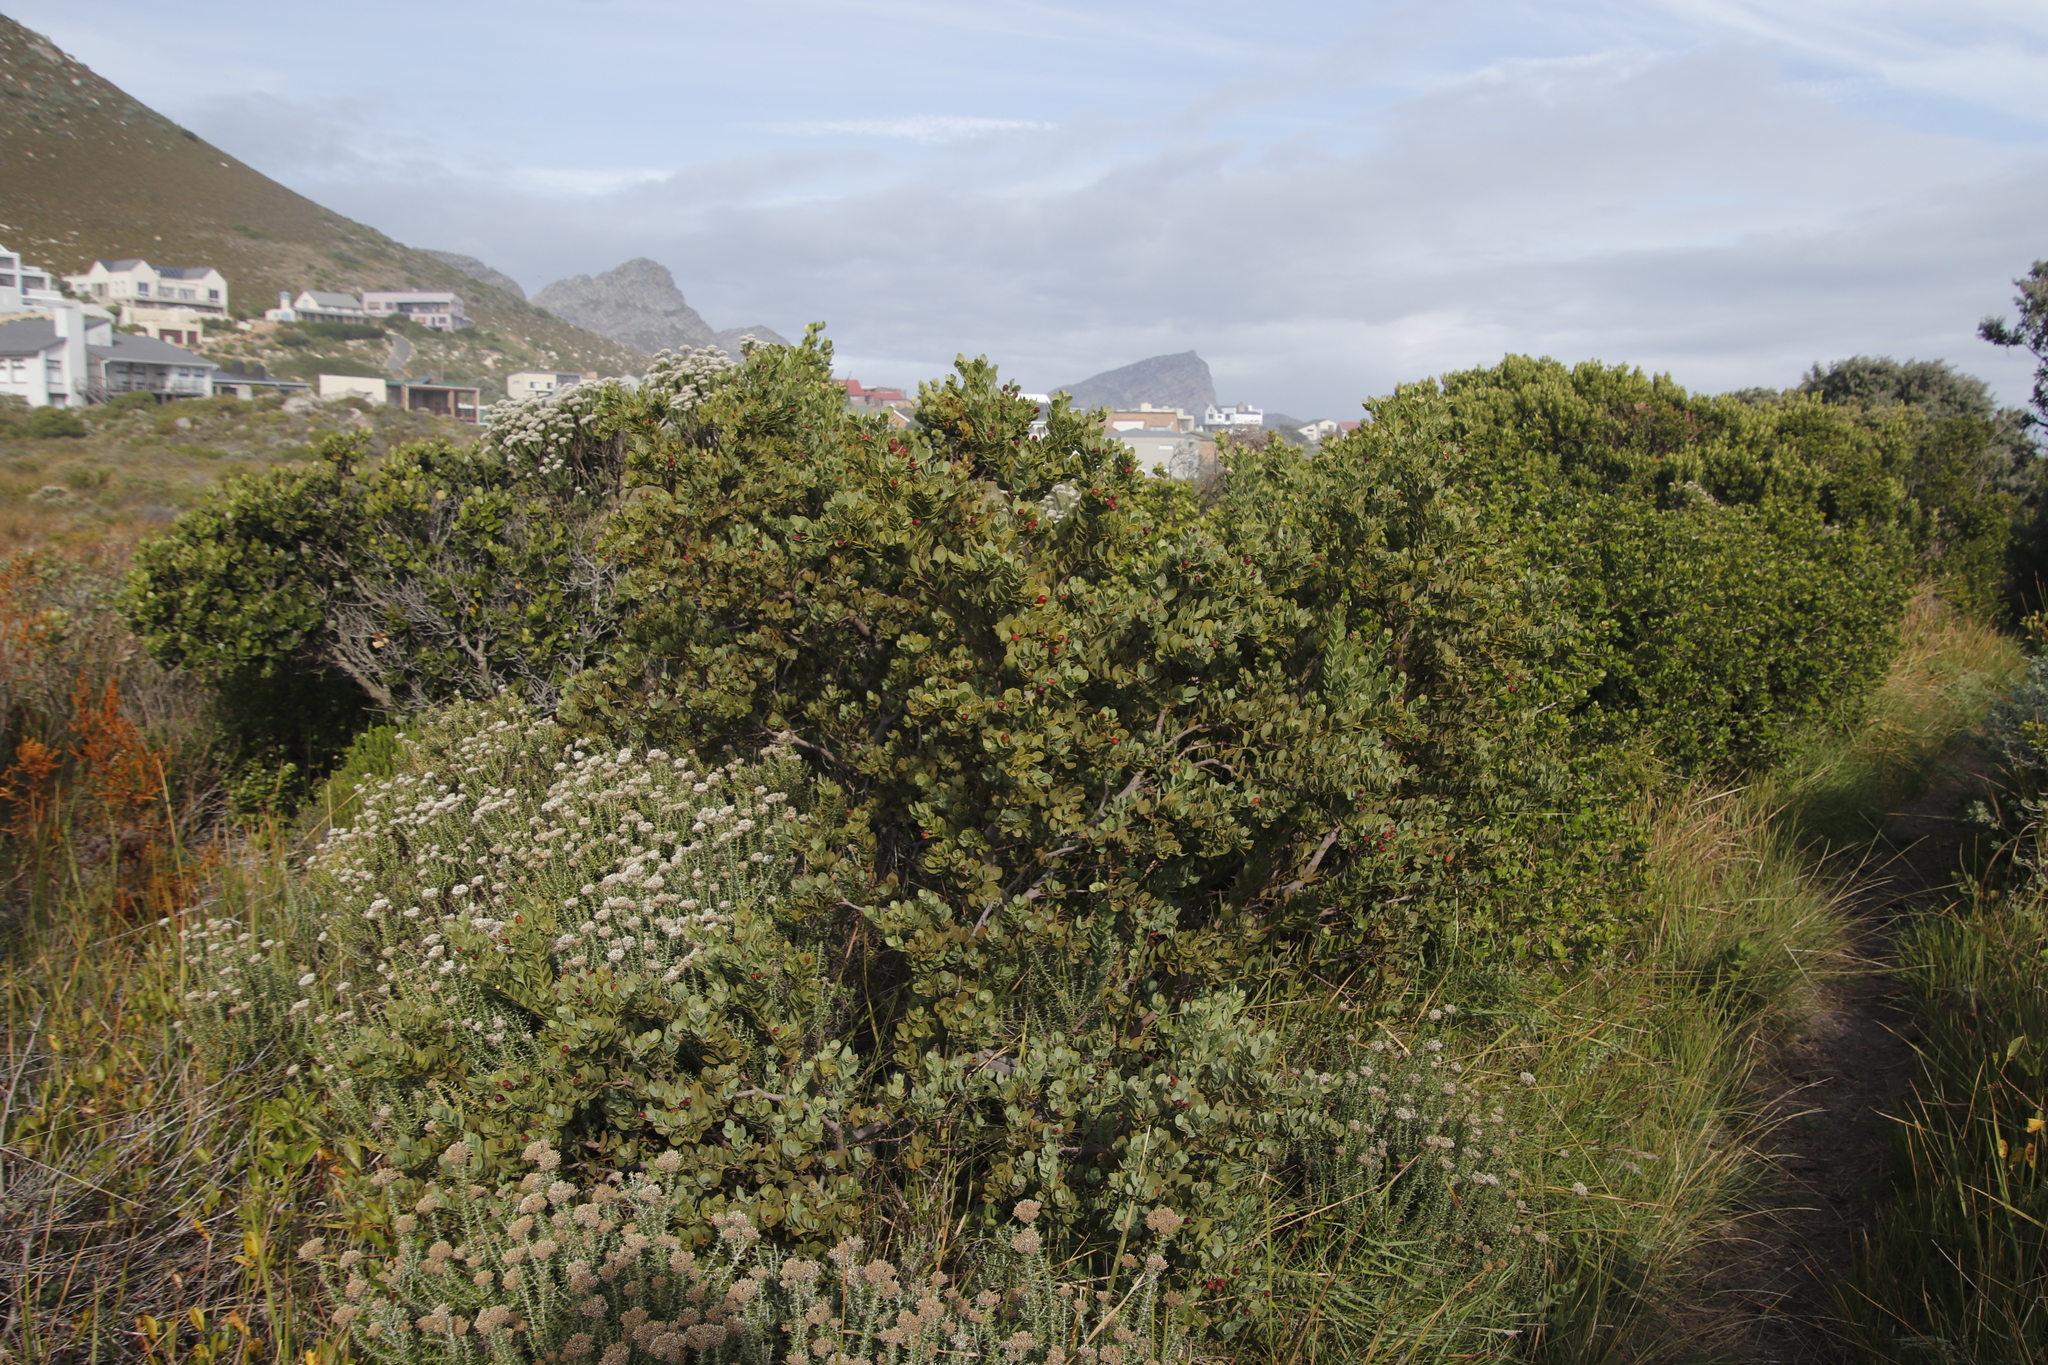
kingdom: Plantae
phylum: Tracheophyta
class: Magnoliopsida
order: Santalales
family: Santalaceae
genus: Osyris
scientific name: Osyris compressa
